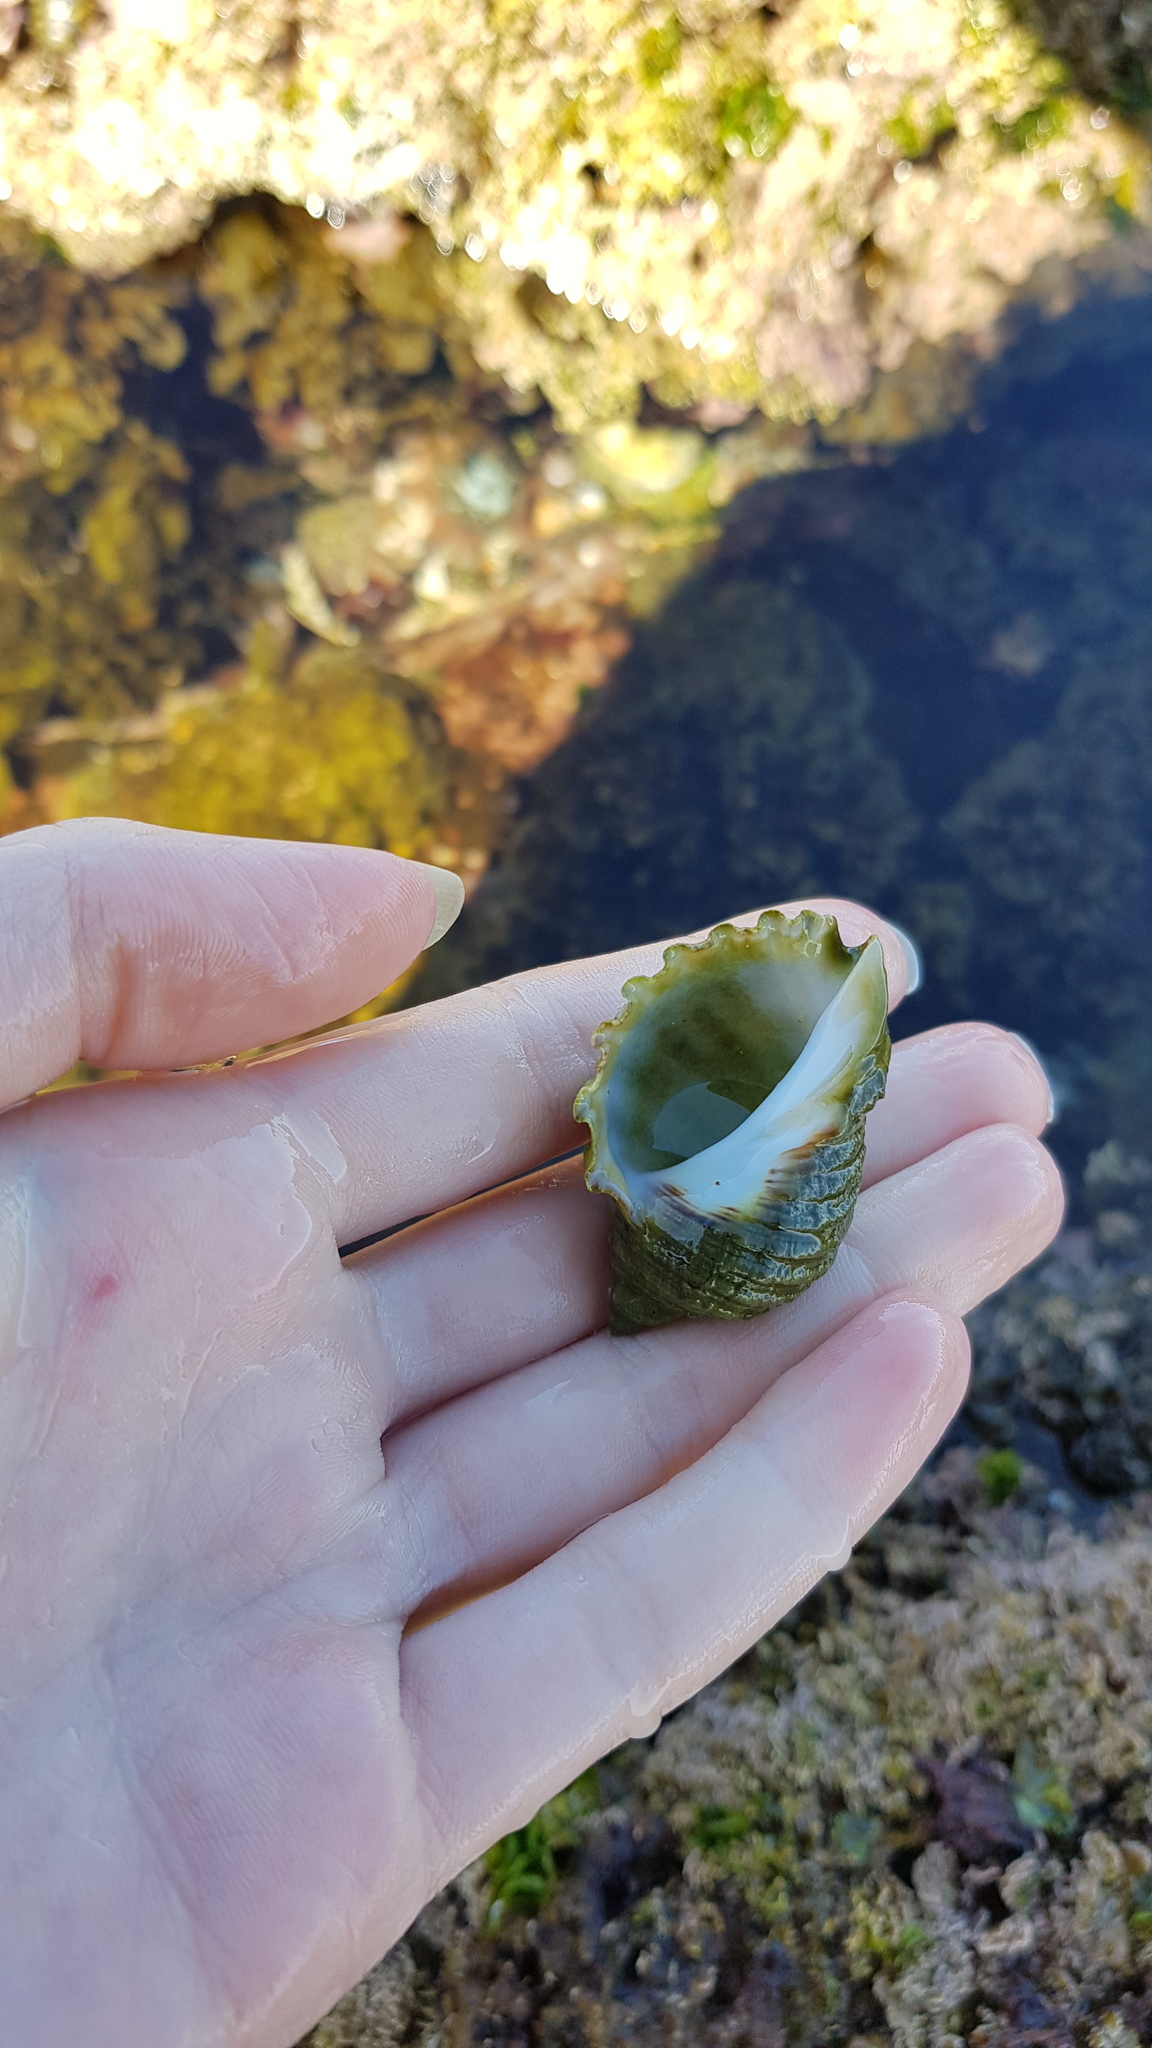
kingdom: Animalia
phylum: Mollusca
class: Gastropoda
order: Neogastropoda
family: Muricidae
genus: Dicathais
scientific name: Dicathais orbita
